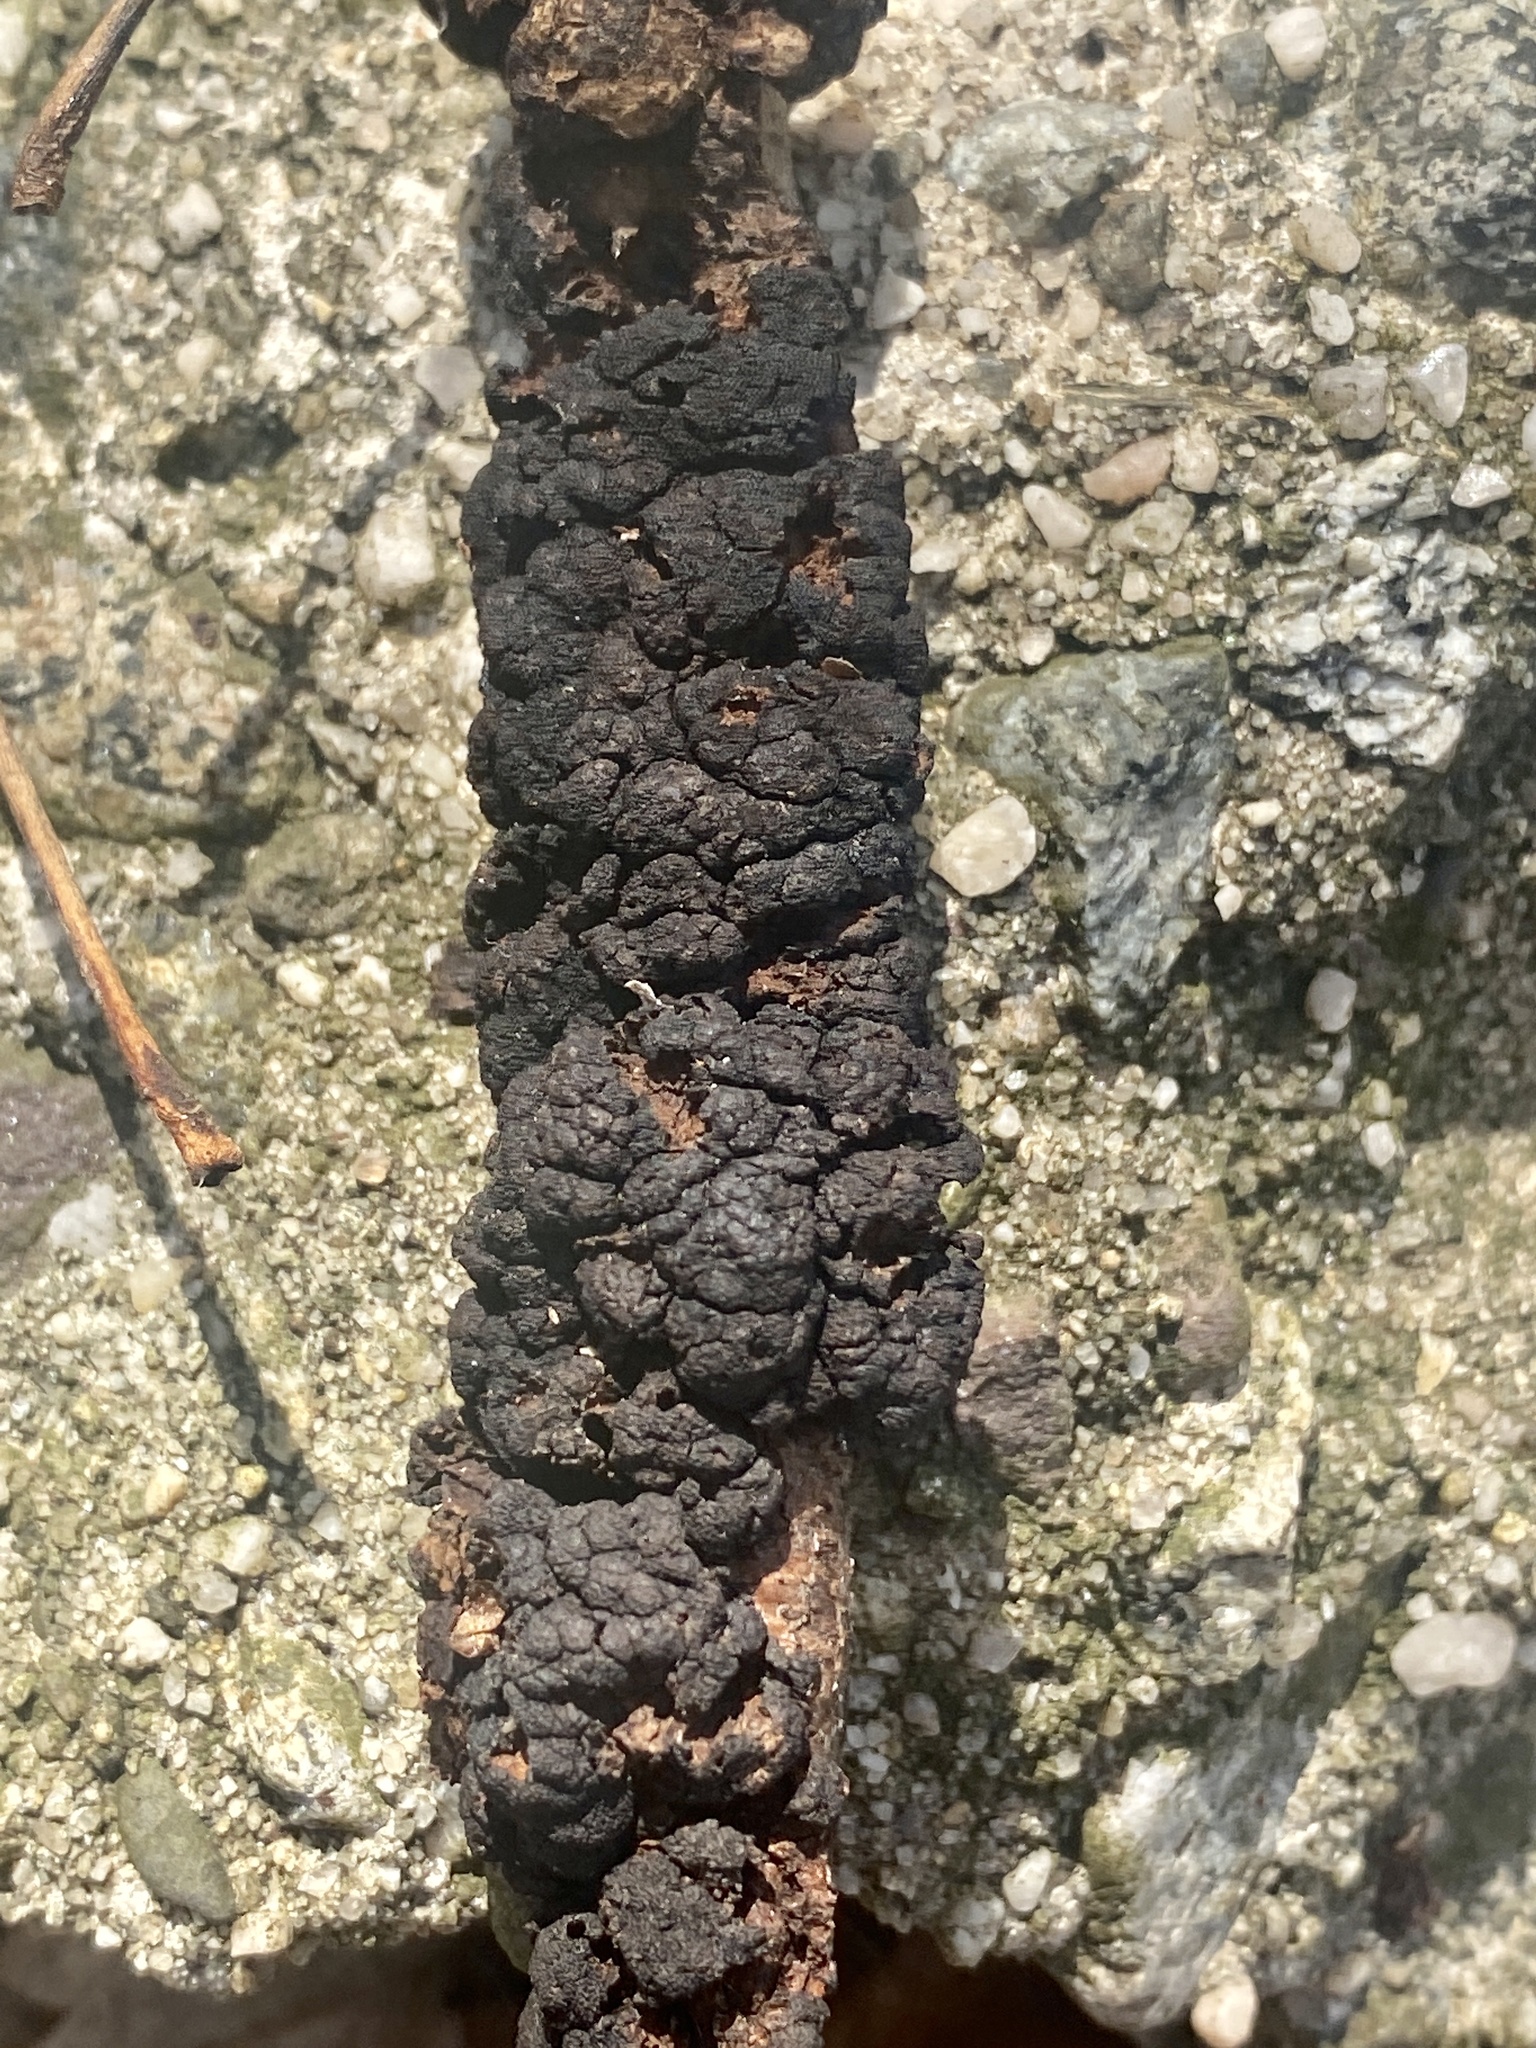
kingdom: Fungi
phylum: Ascomycota
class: Dothideomycetes
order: Venturiales
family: Venturiaceae
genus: Apiosporina
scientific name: Apiosporina morbosa
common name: Black knot
